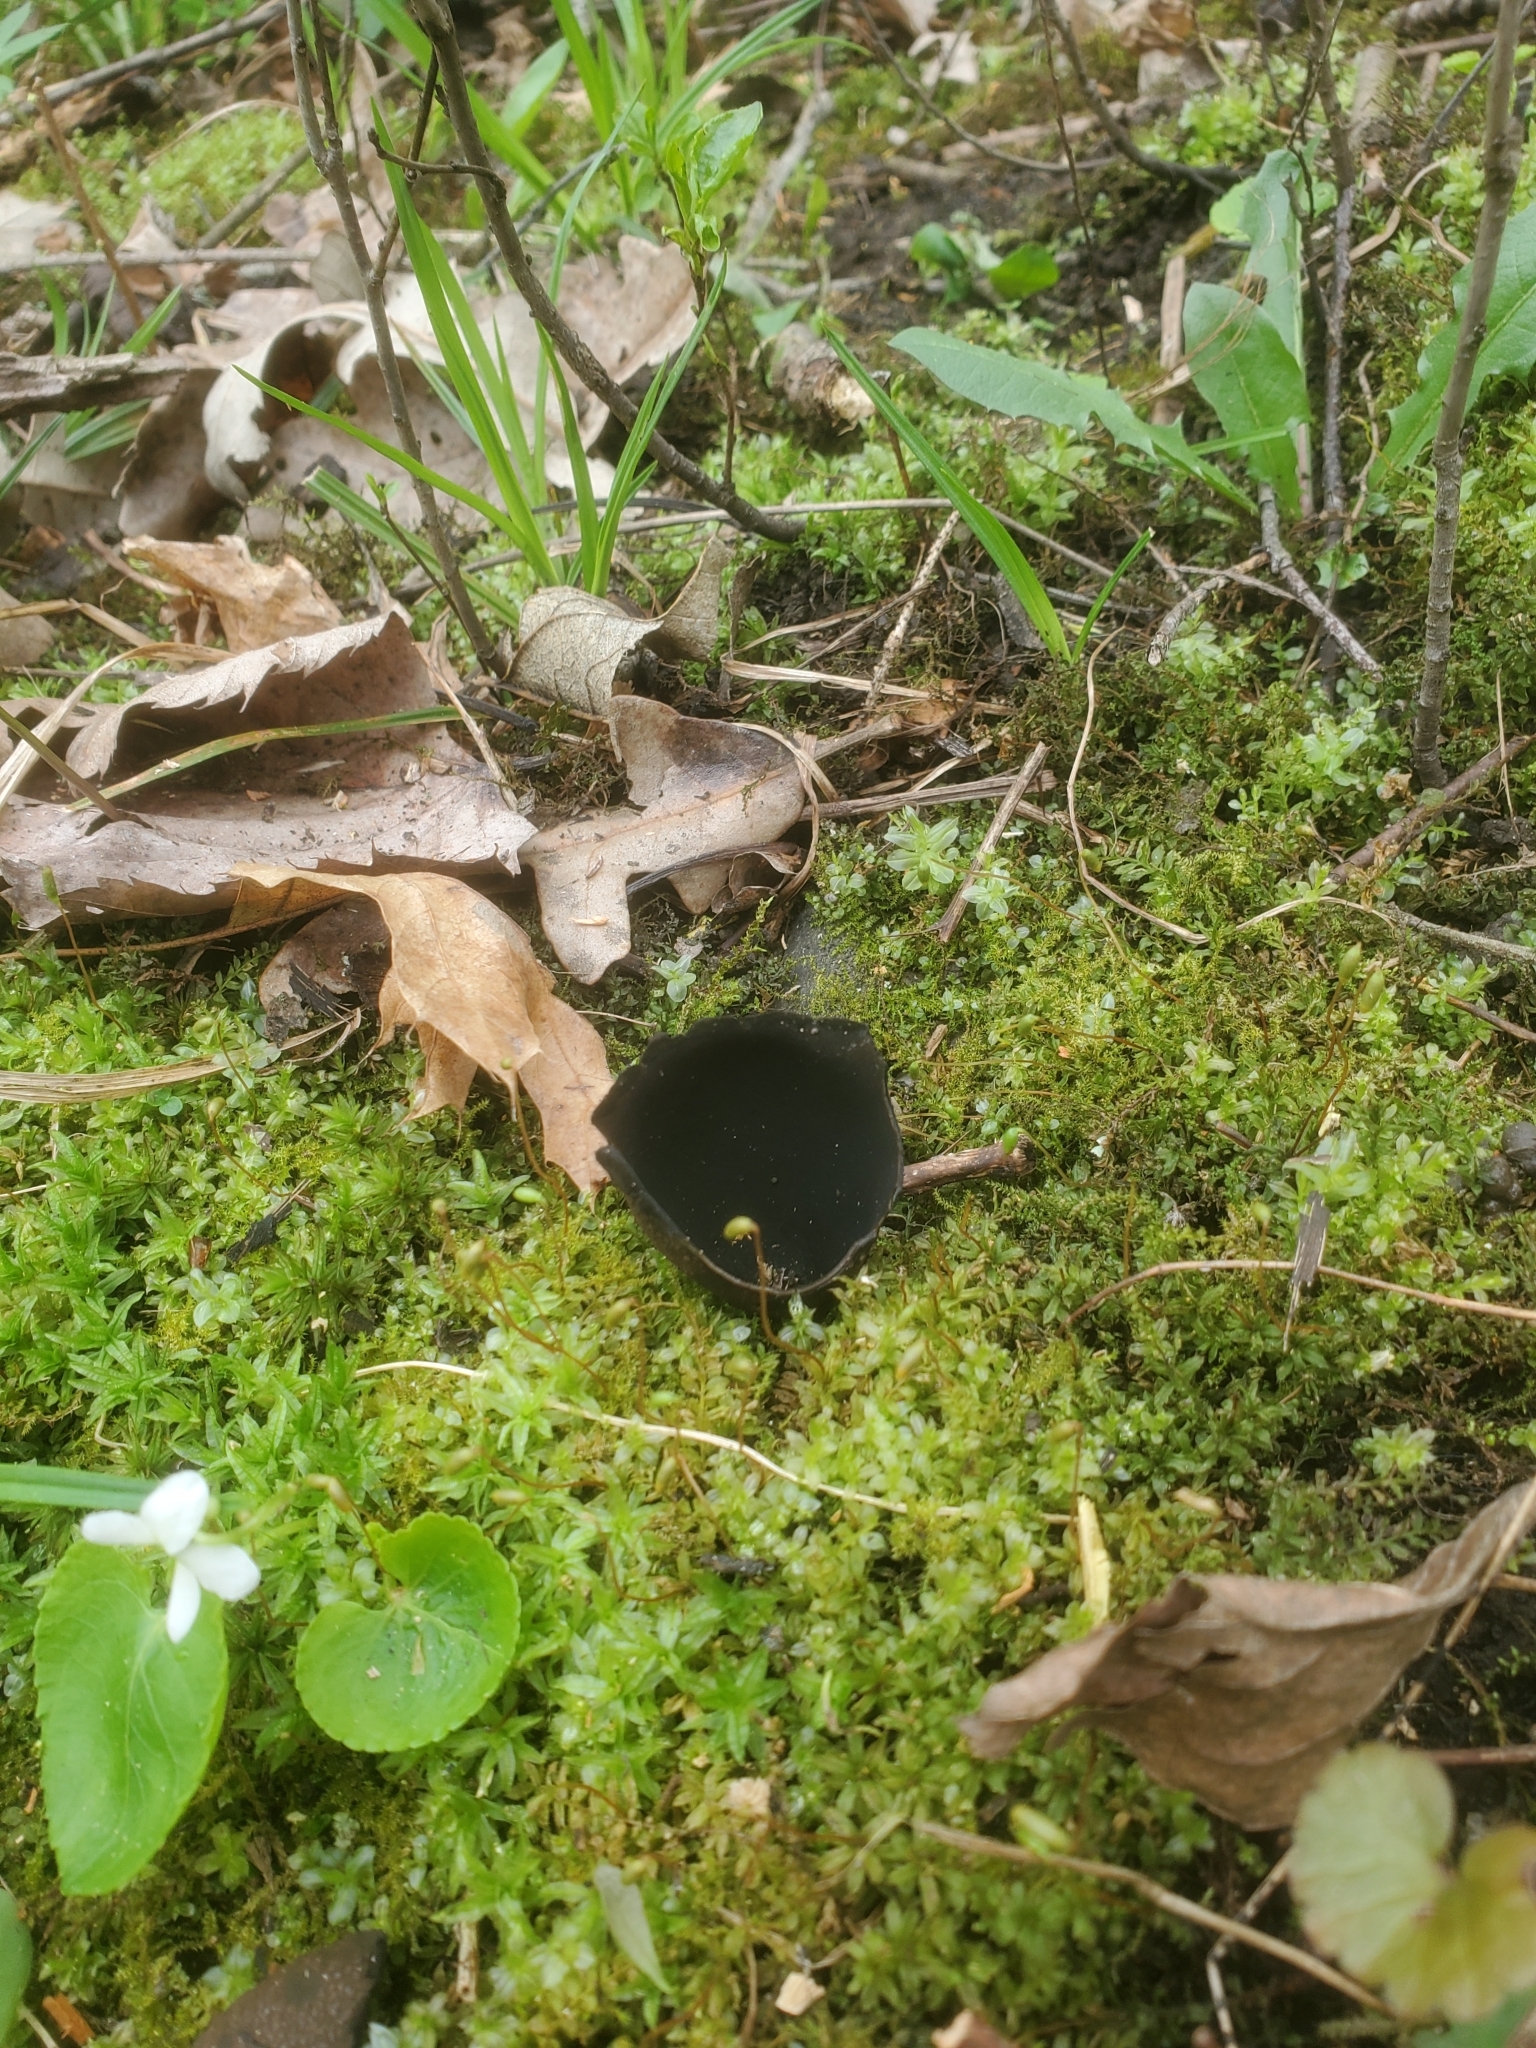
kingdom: Fungi
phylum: Ascomycota
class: Pezizomycetes
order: Pezizales
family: Sarcosomataceae
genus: Urnula
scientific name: Urnula craterium
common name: Devil's urn
